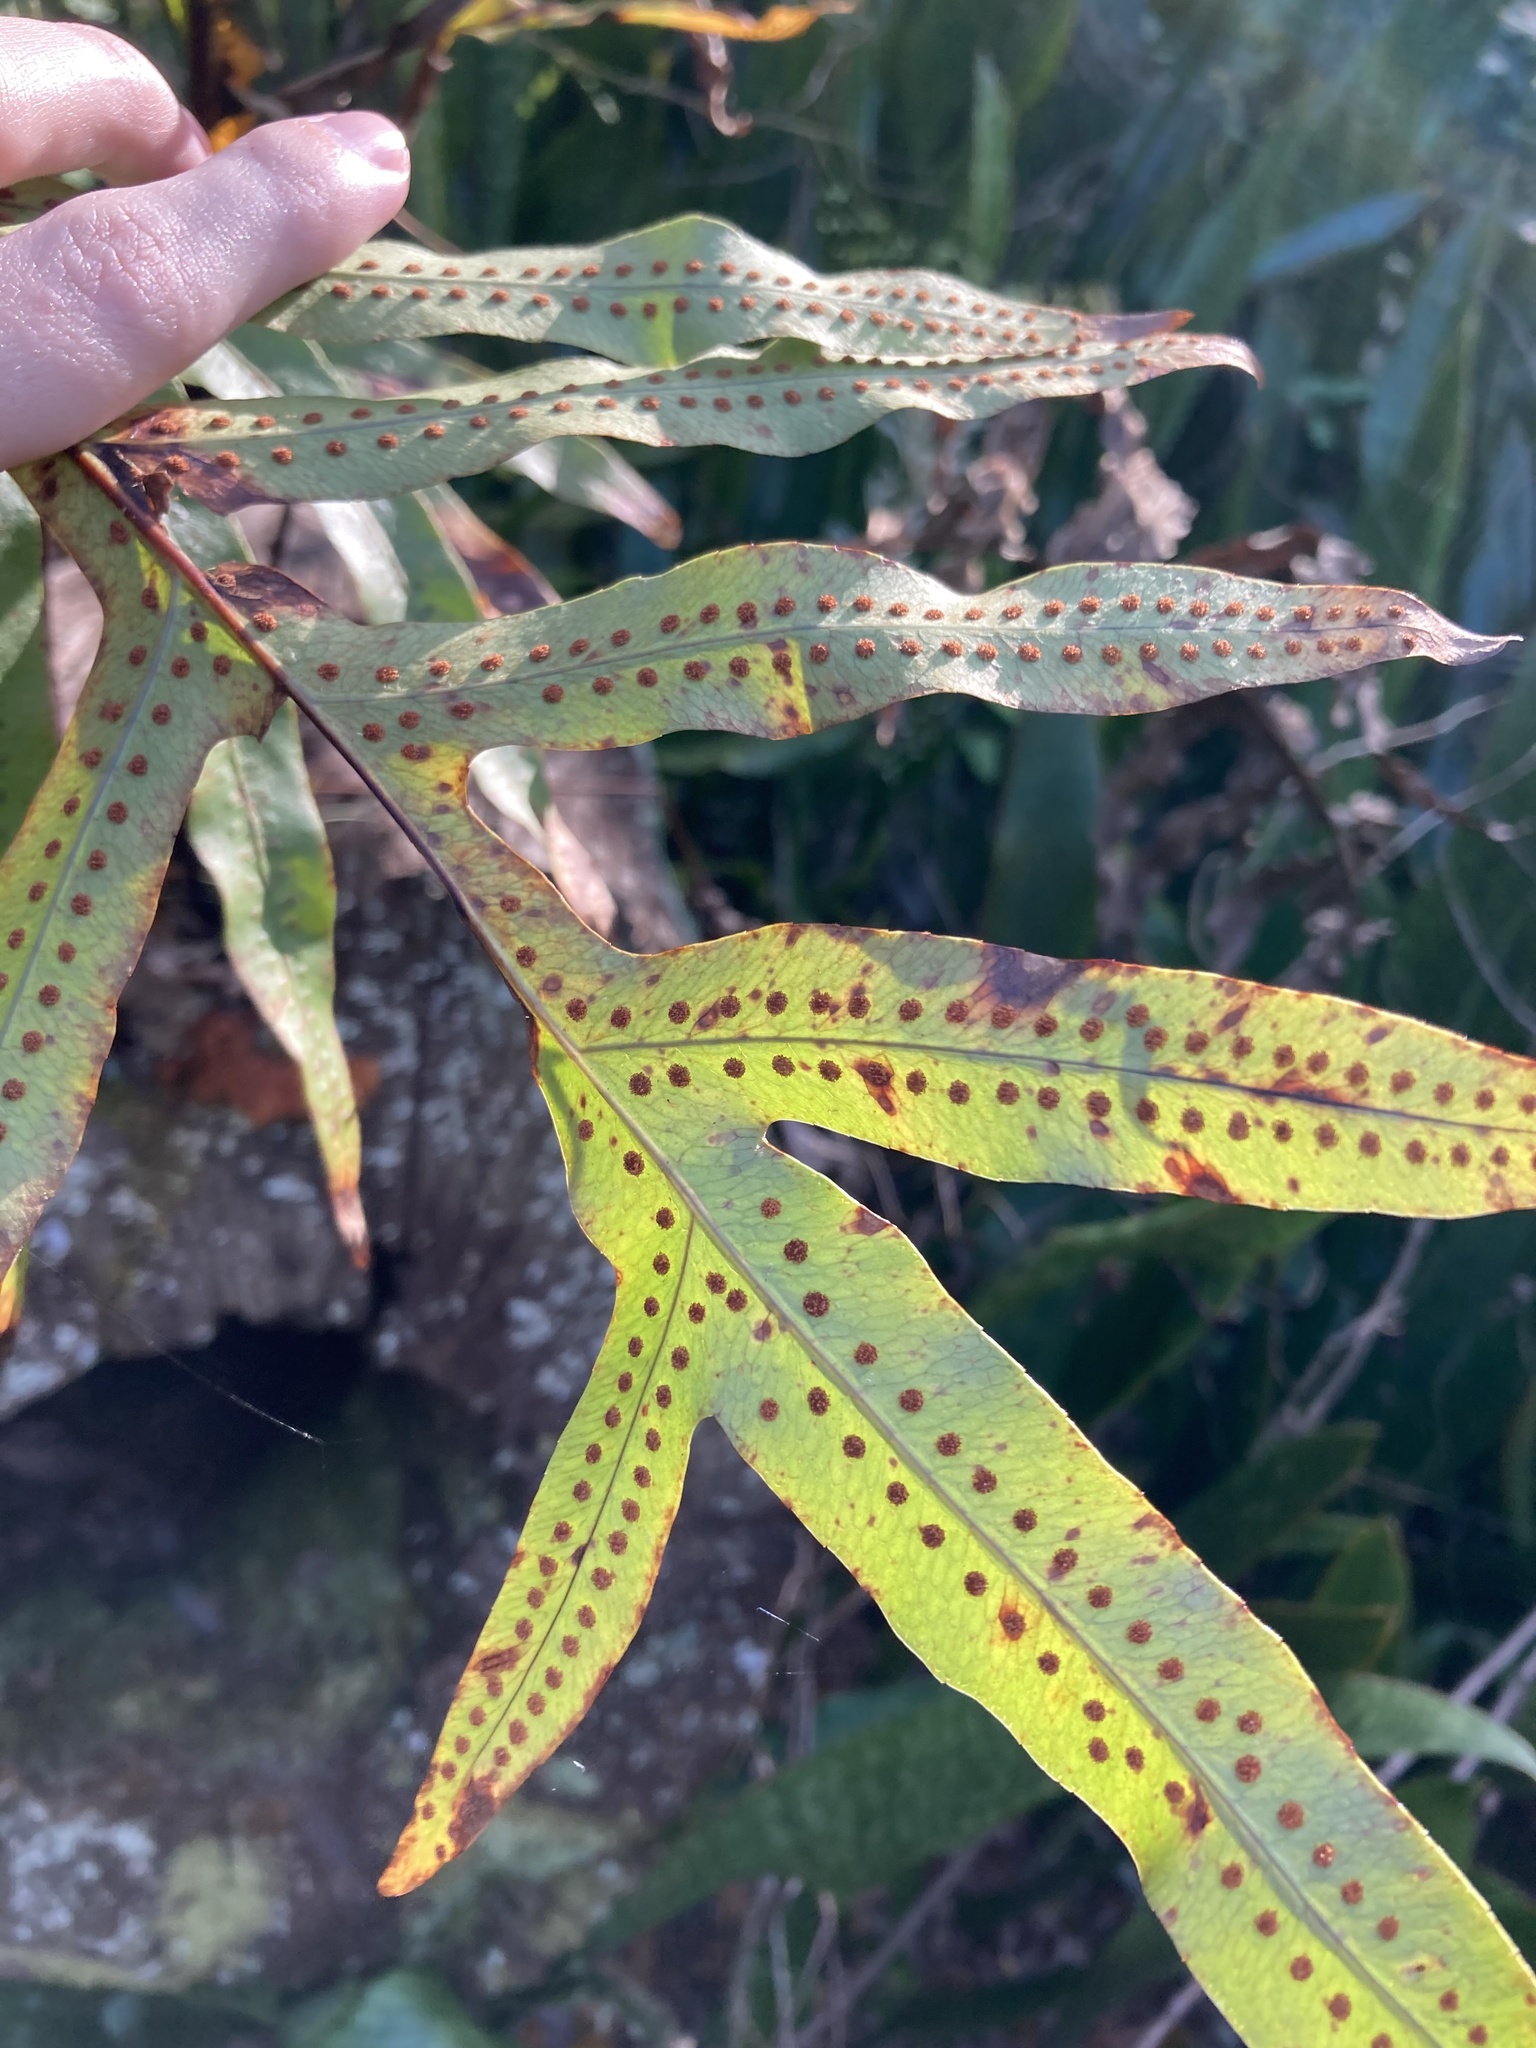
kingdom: Plantae
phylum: Tracheophyta
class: Polypodiopsida
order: Polypodiales
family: Polypodiaceae
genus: Phlebodium
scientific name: Phlebodium aureum
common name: Gold-foot fern
